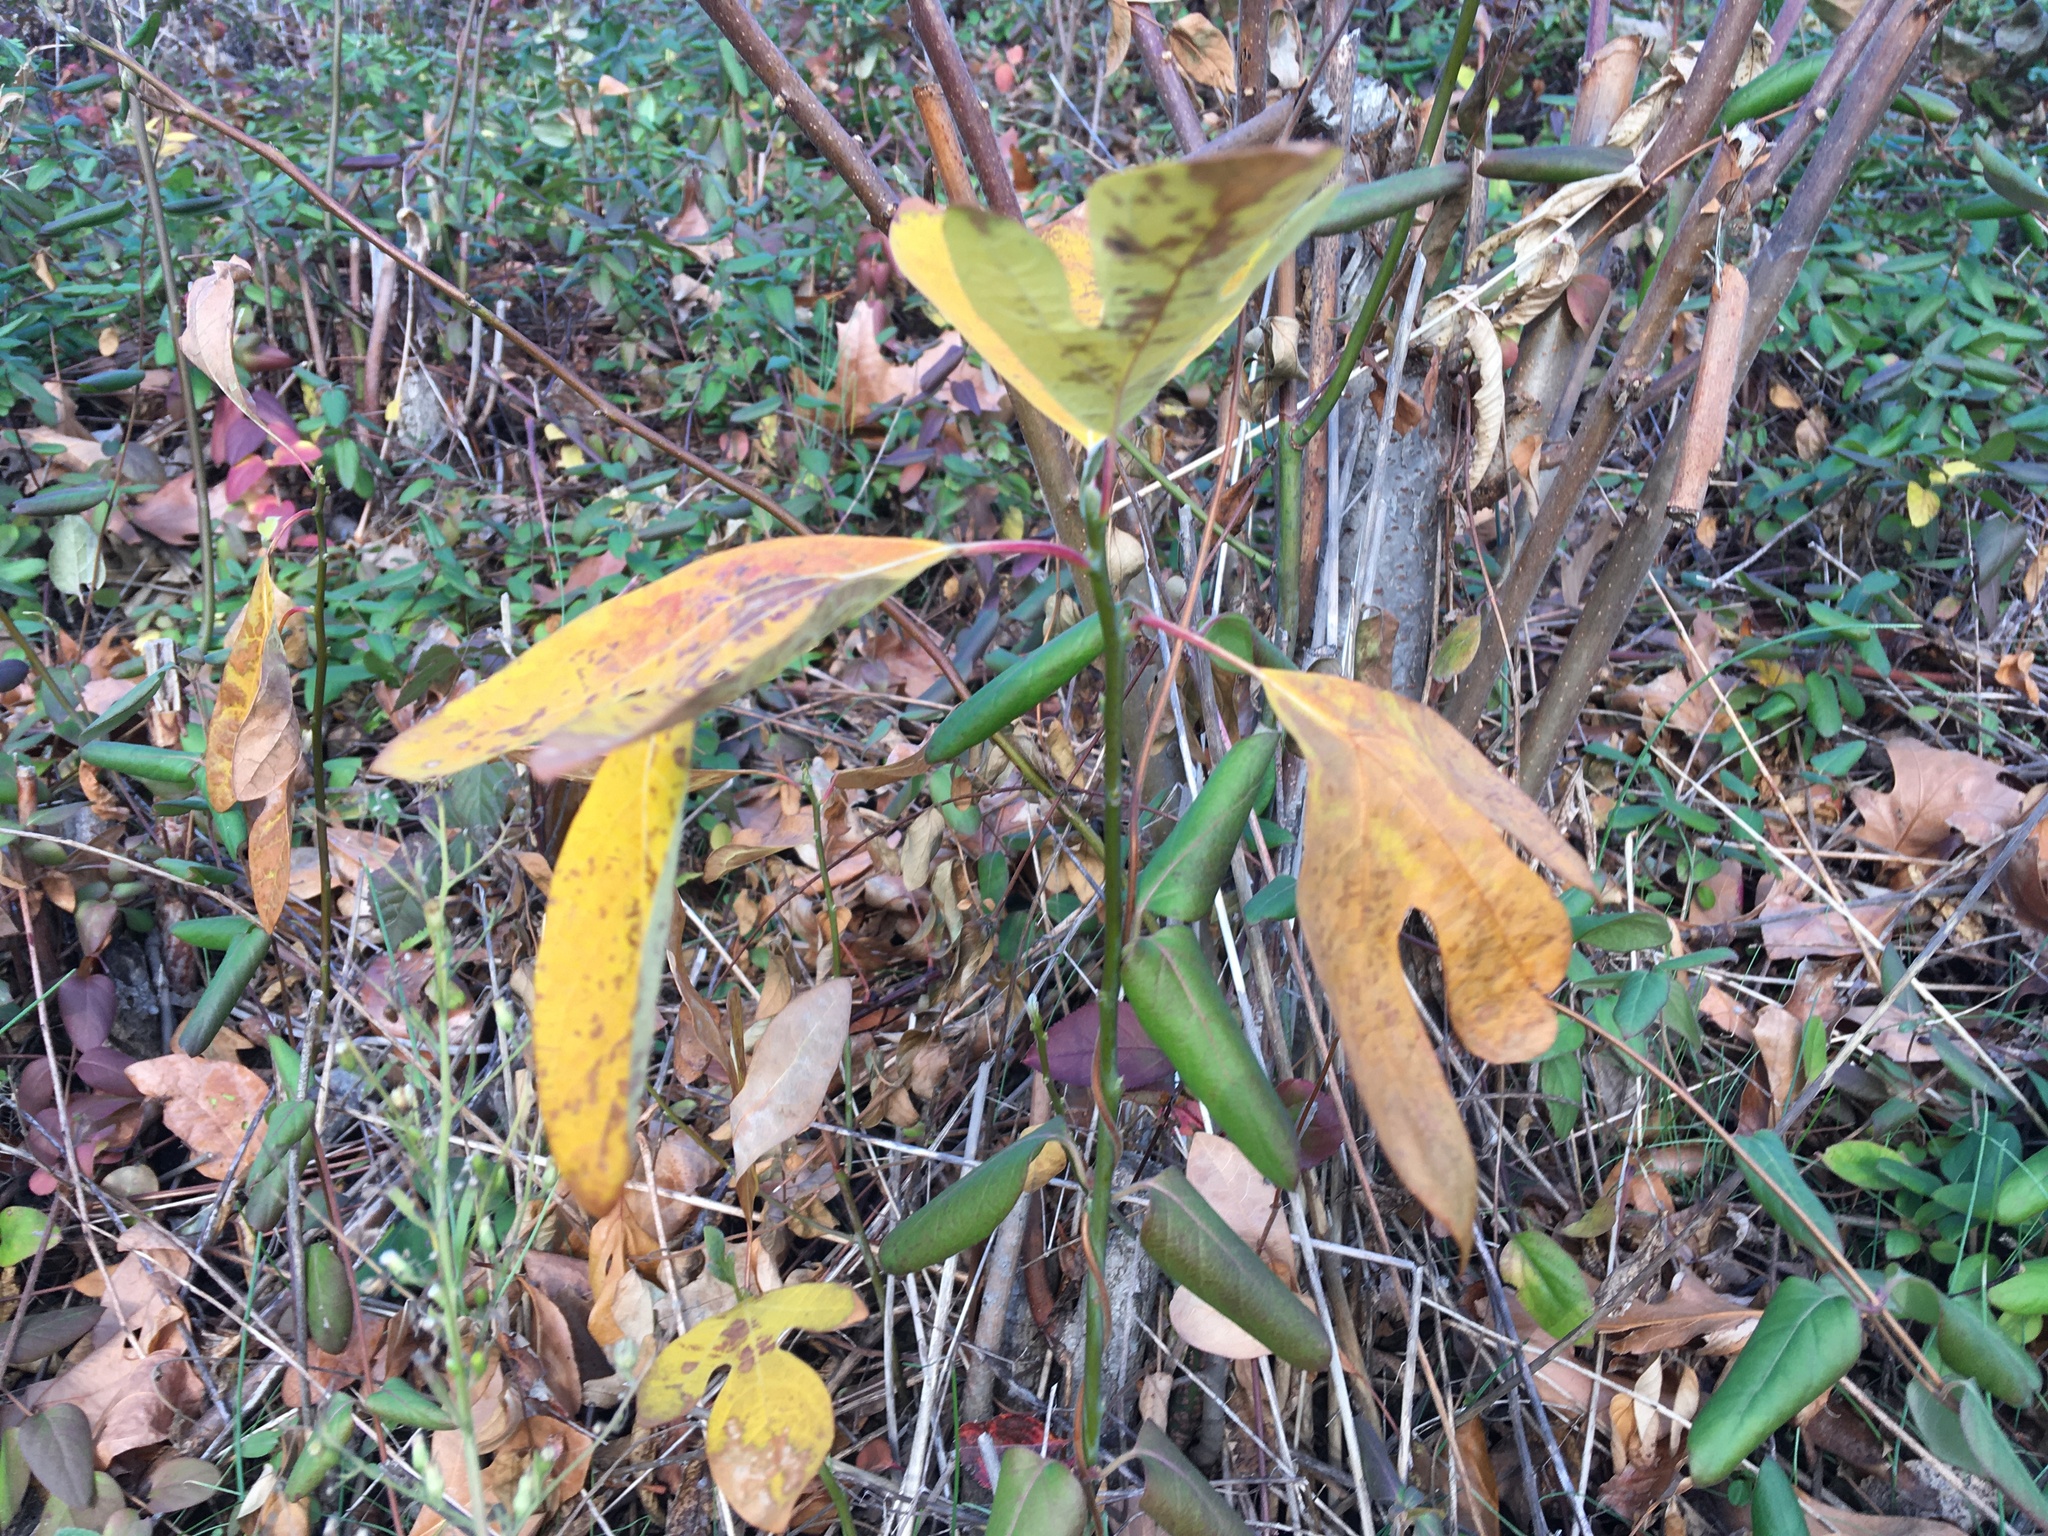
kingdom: Plantae
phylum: Tracheophyta
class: Magnoliopsida
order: Laurales
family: Lauraceae
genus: Sassafras
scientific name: Sassafras albidum
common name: Sassafras
